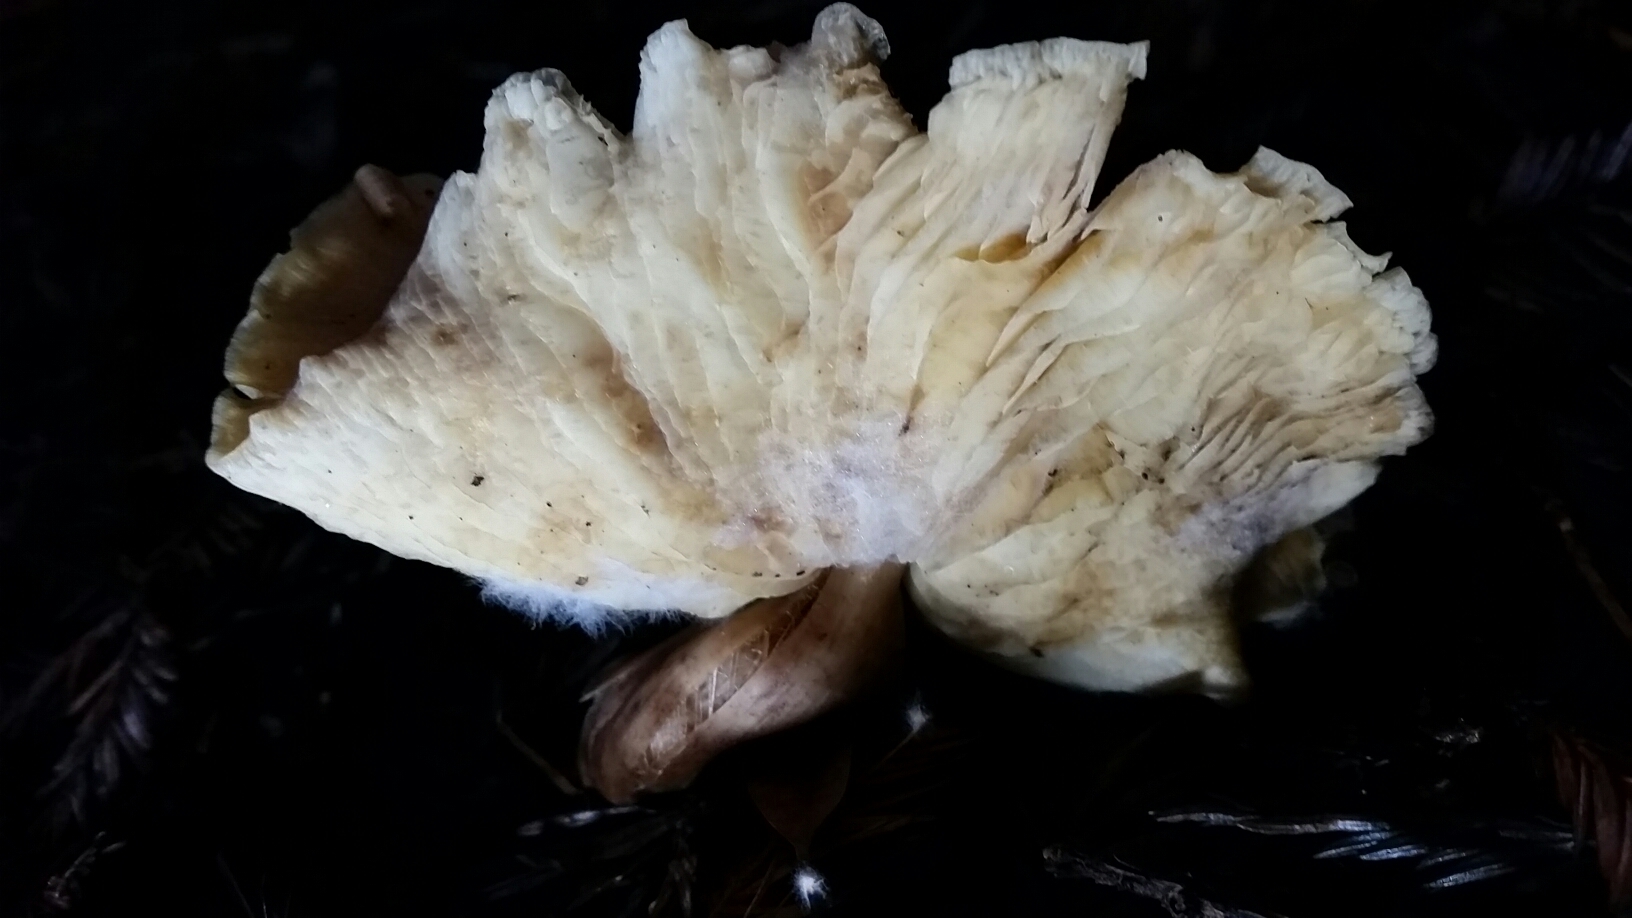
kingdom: Fungi
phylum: Basidiomycota
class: Agaricomycetes
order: Agaricales
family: Tricholomataceae
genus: Caulorhiza
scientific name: Caulorhiza umbonata
